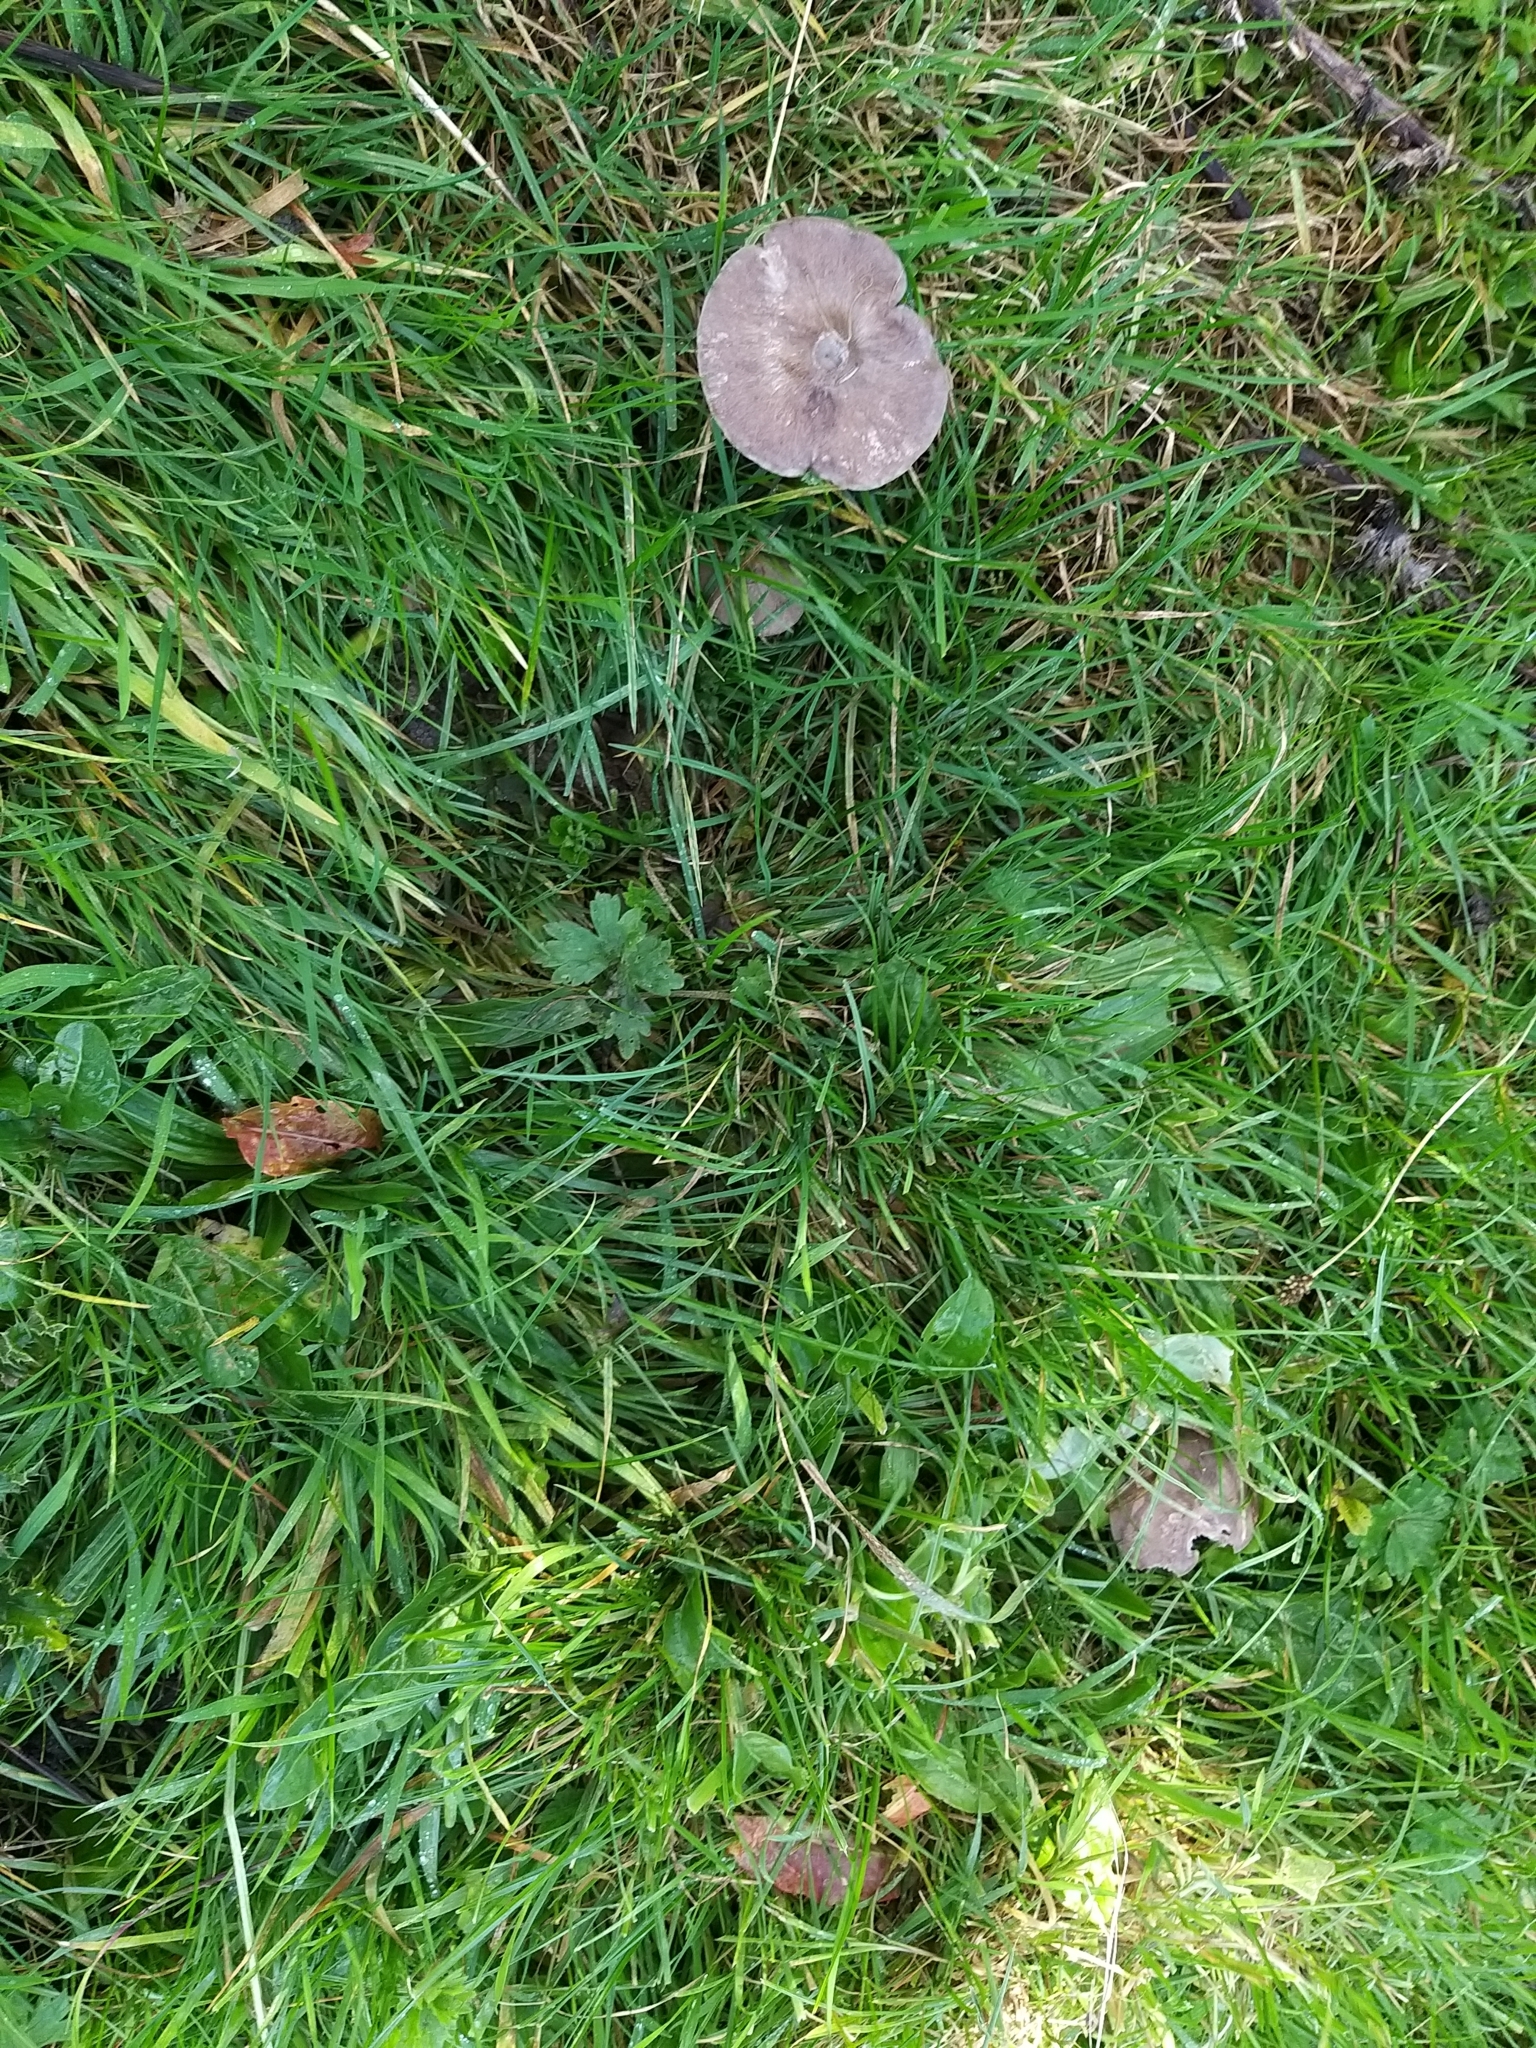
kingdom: Fungi
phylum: Basidiomycota
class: Agaricomycetes
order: Agaricales
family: Entolomataceae
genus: Entoloma
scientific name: Entoloma porphyrophaeum
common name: Lilac pinkgill
